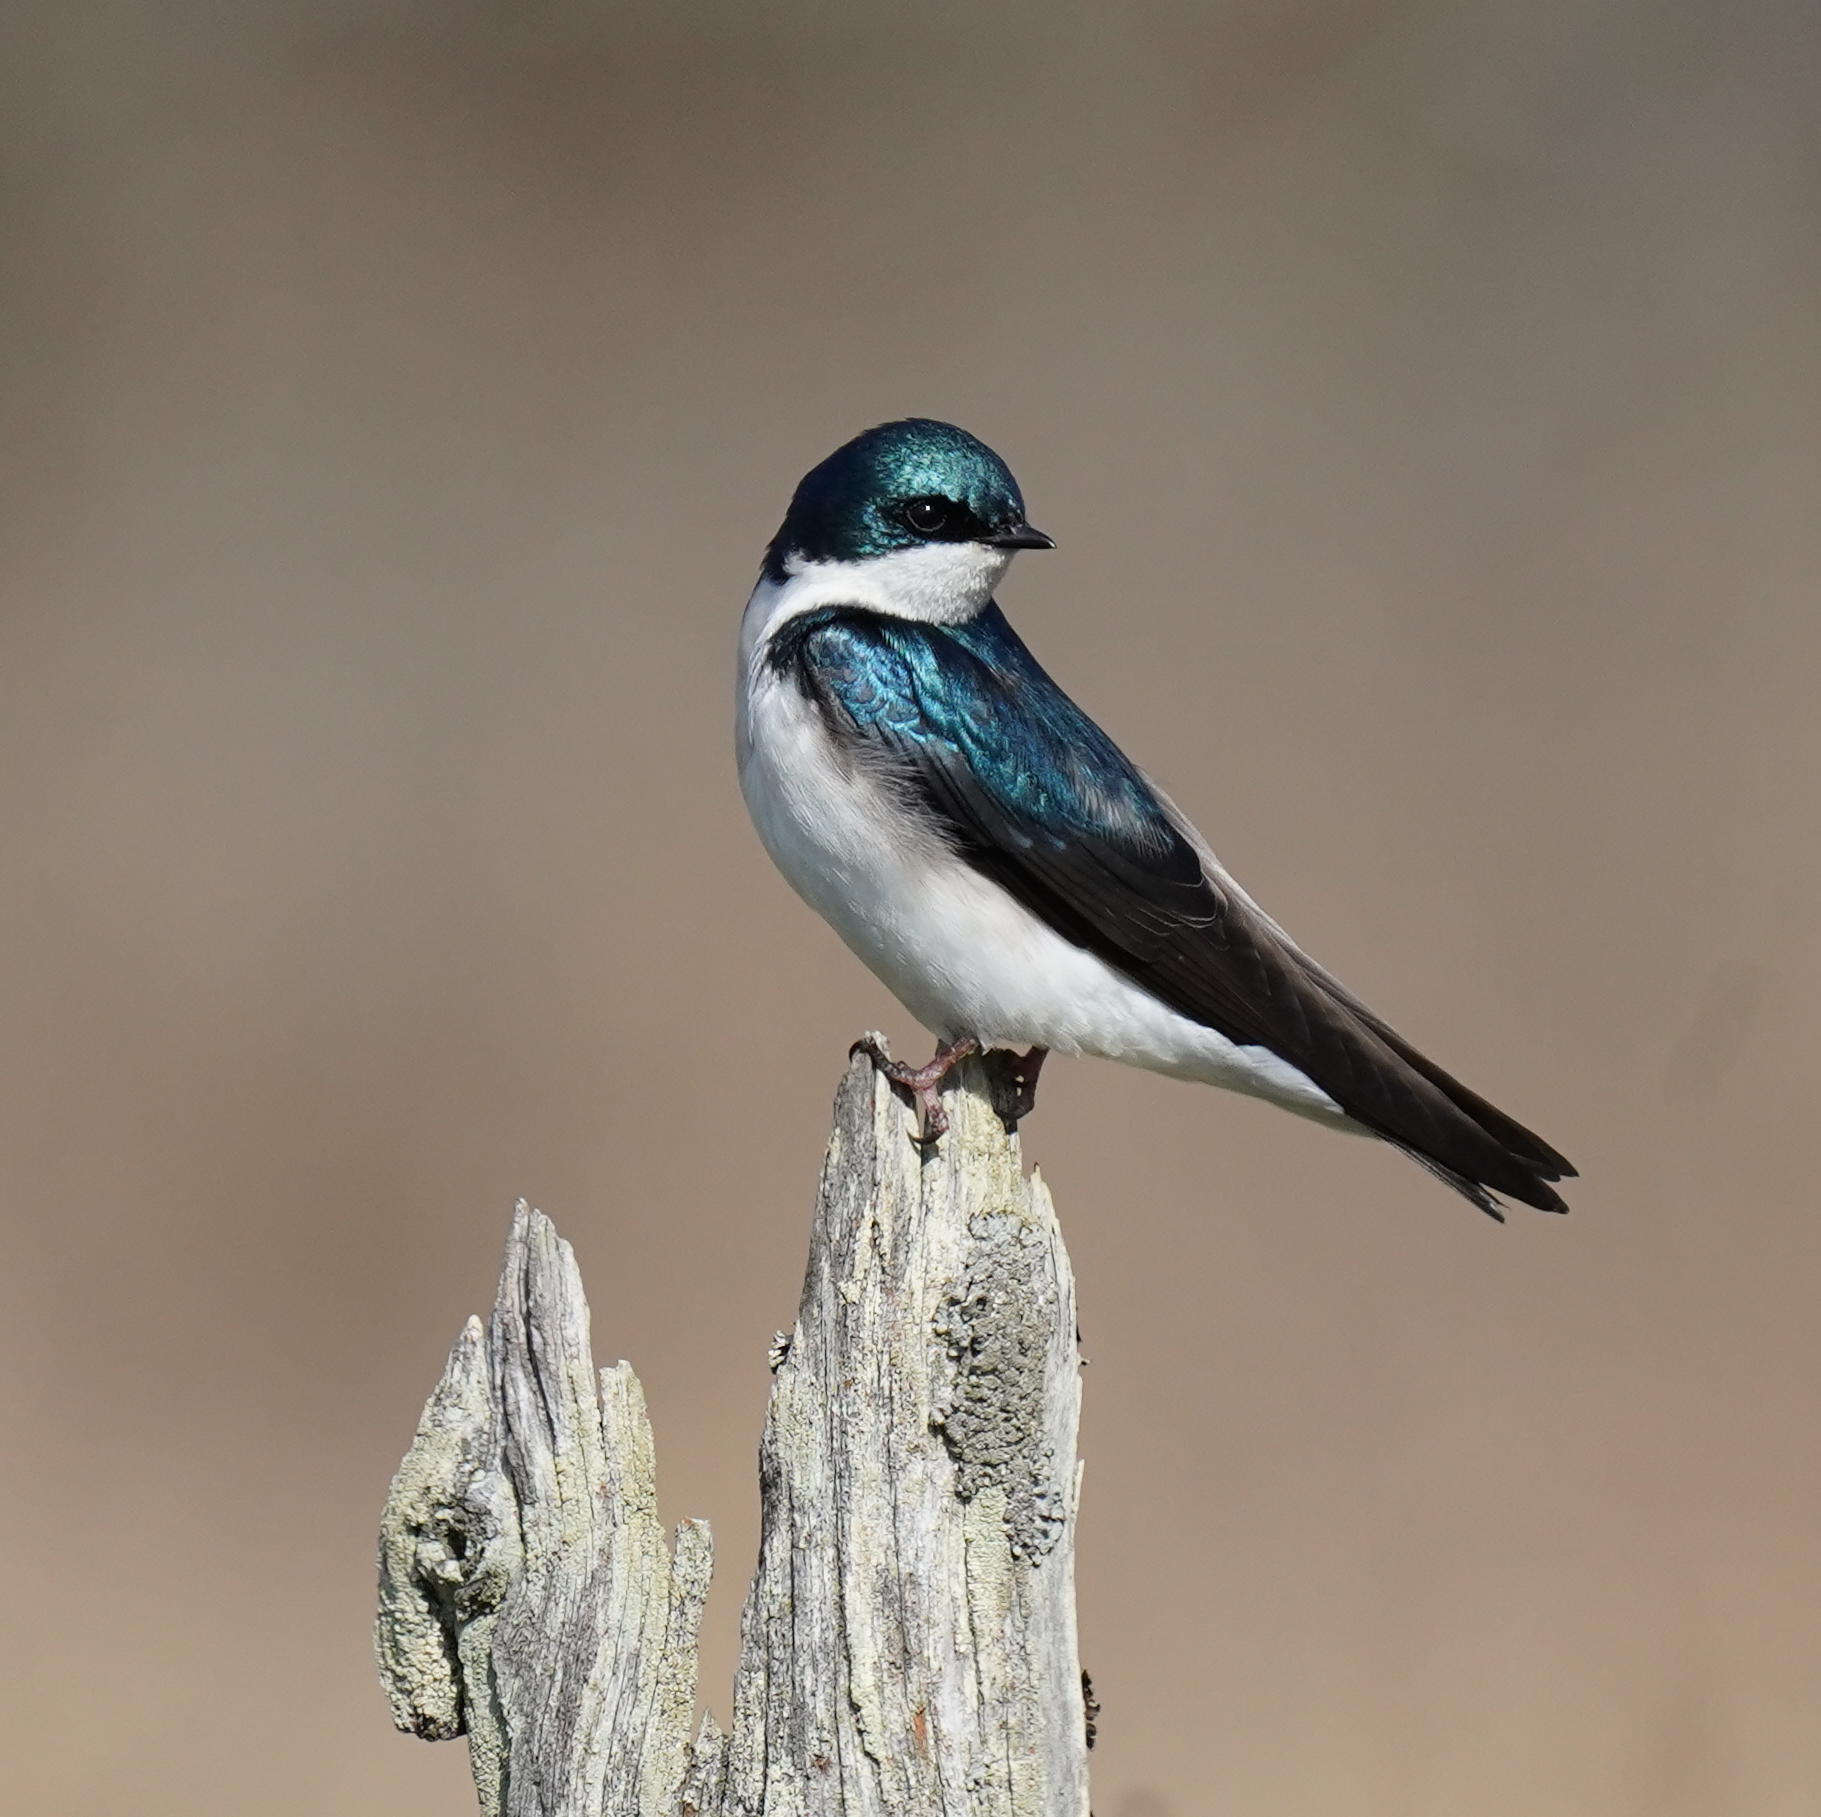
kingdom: Animalia
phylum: Chordata
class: Aves
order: Passeriformes
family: Hirundinidae
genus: Tachycineta
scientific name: Tachycineta bicolor
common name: Tree swallow
